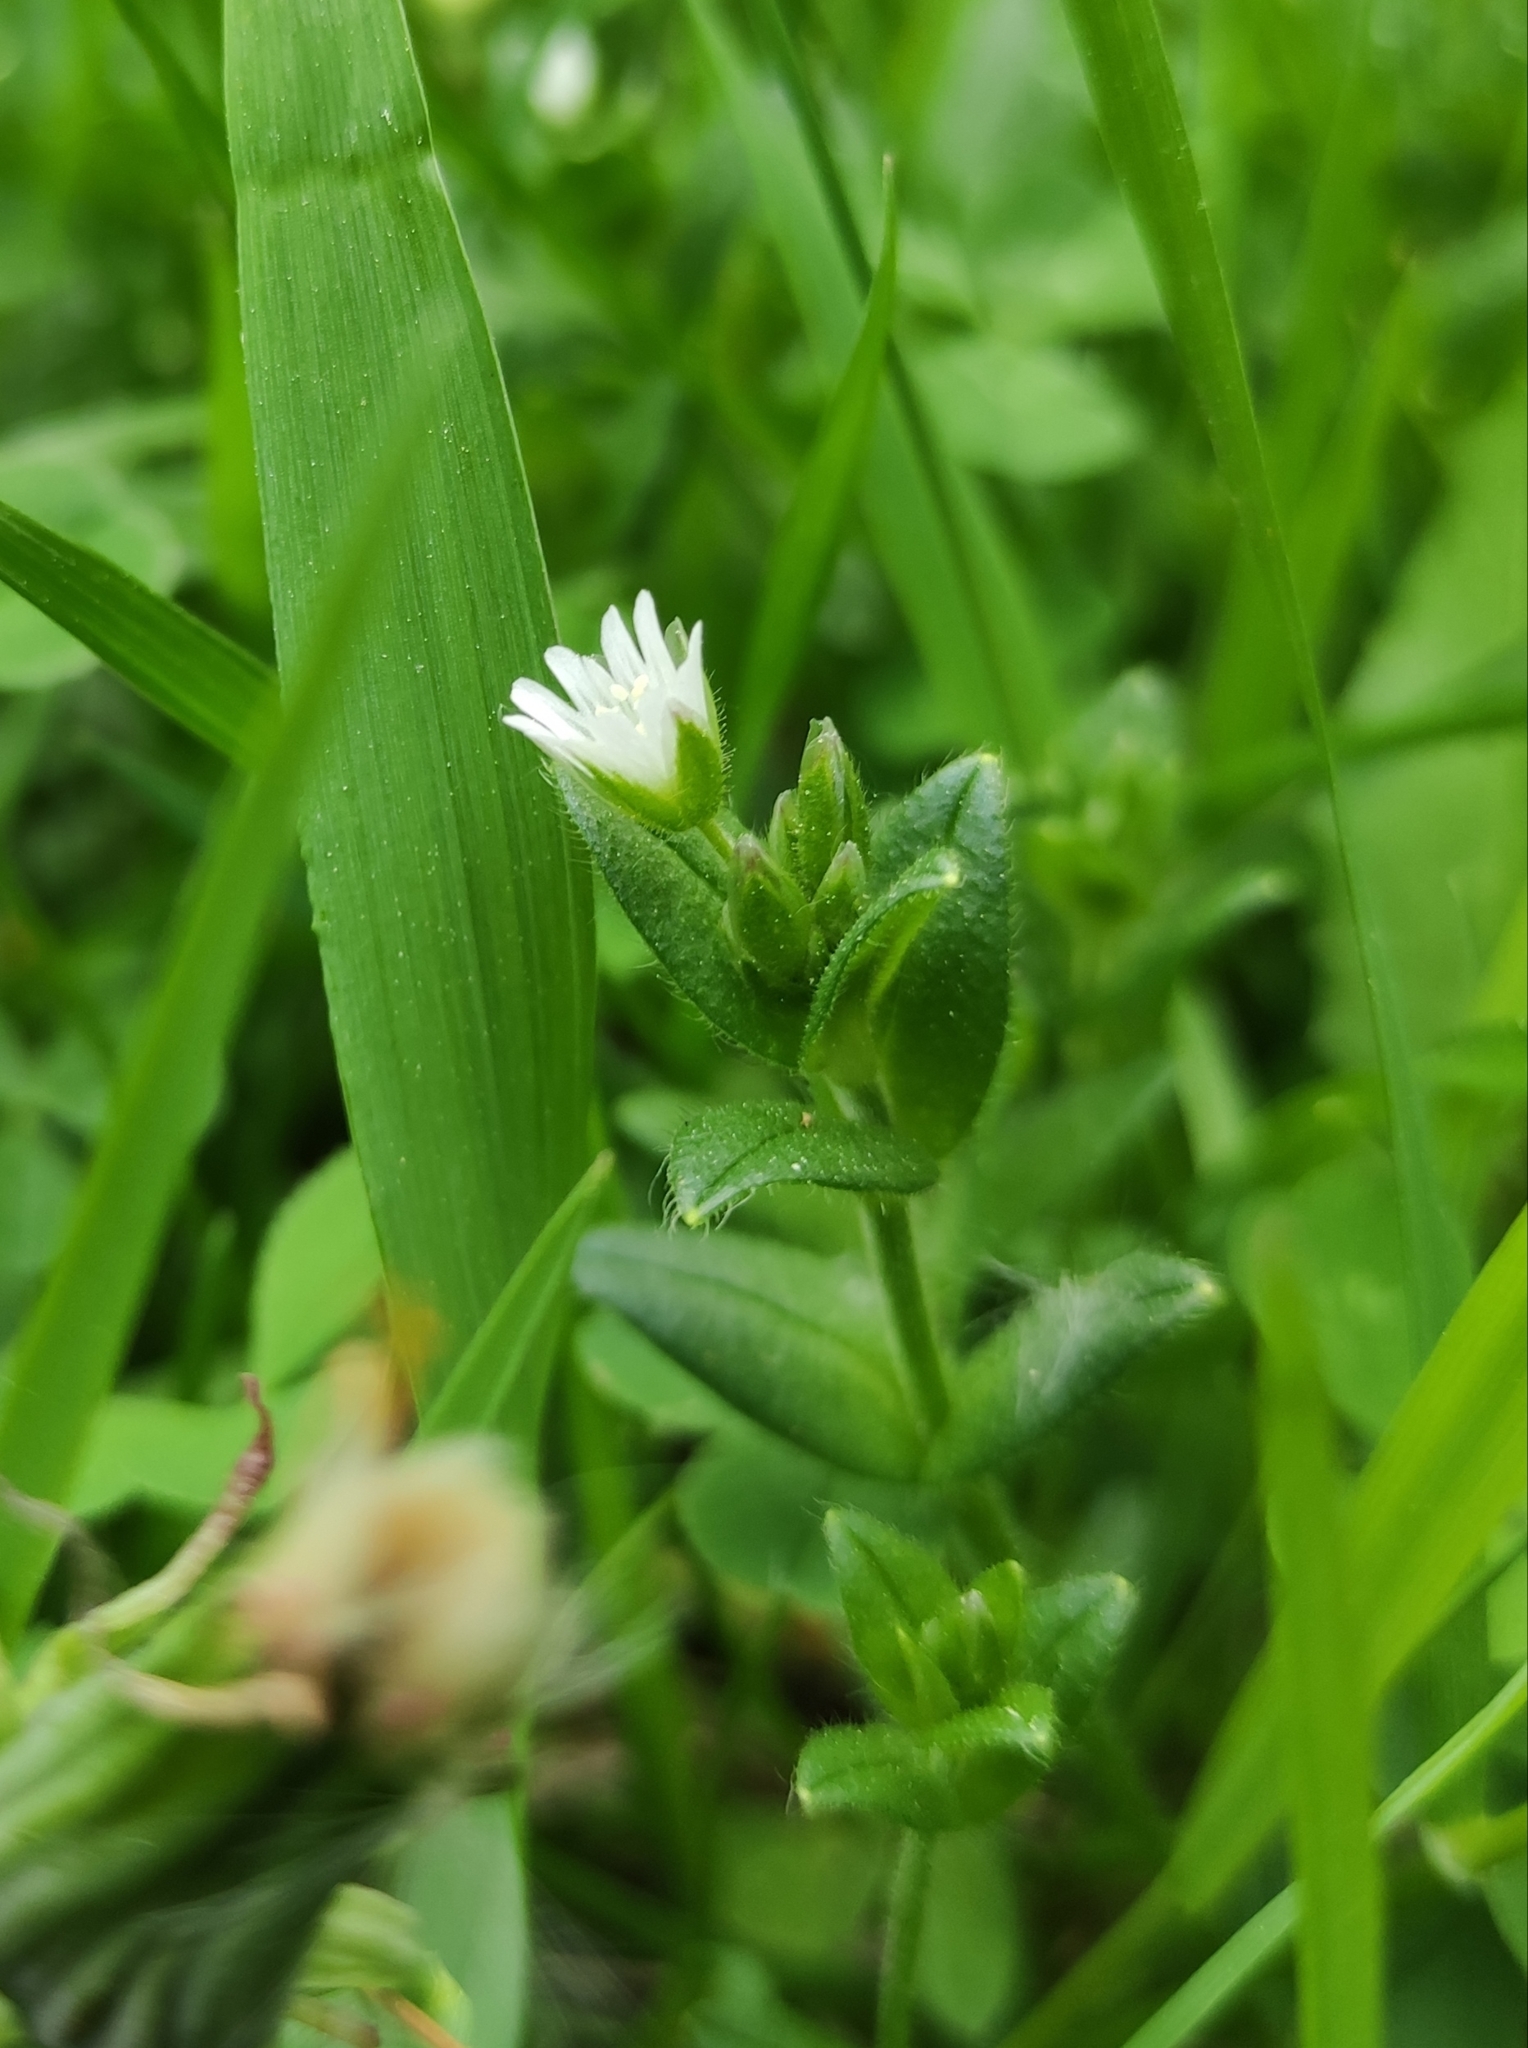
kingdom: Plantae
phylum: Tracheophyta
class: Magnoliopsida
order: Caryophyllales
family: Caryophyllaceae
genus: Cerastium
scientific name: Cerastium holosteoides
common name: Big chickweed
